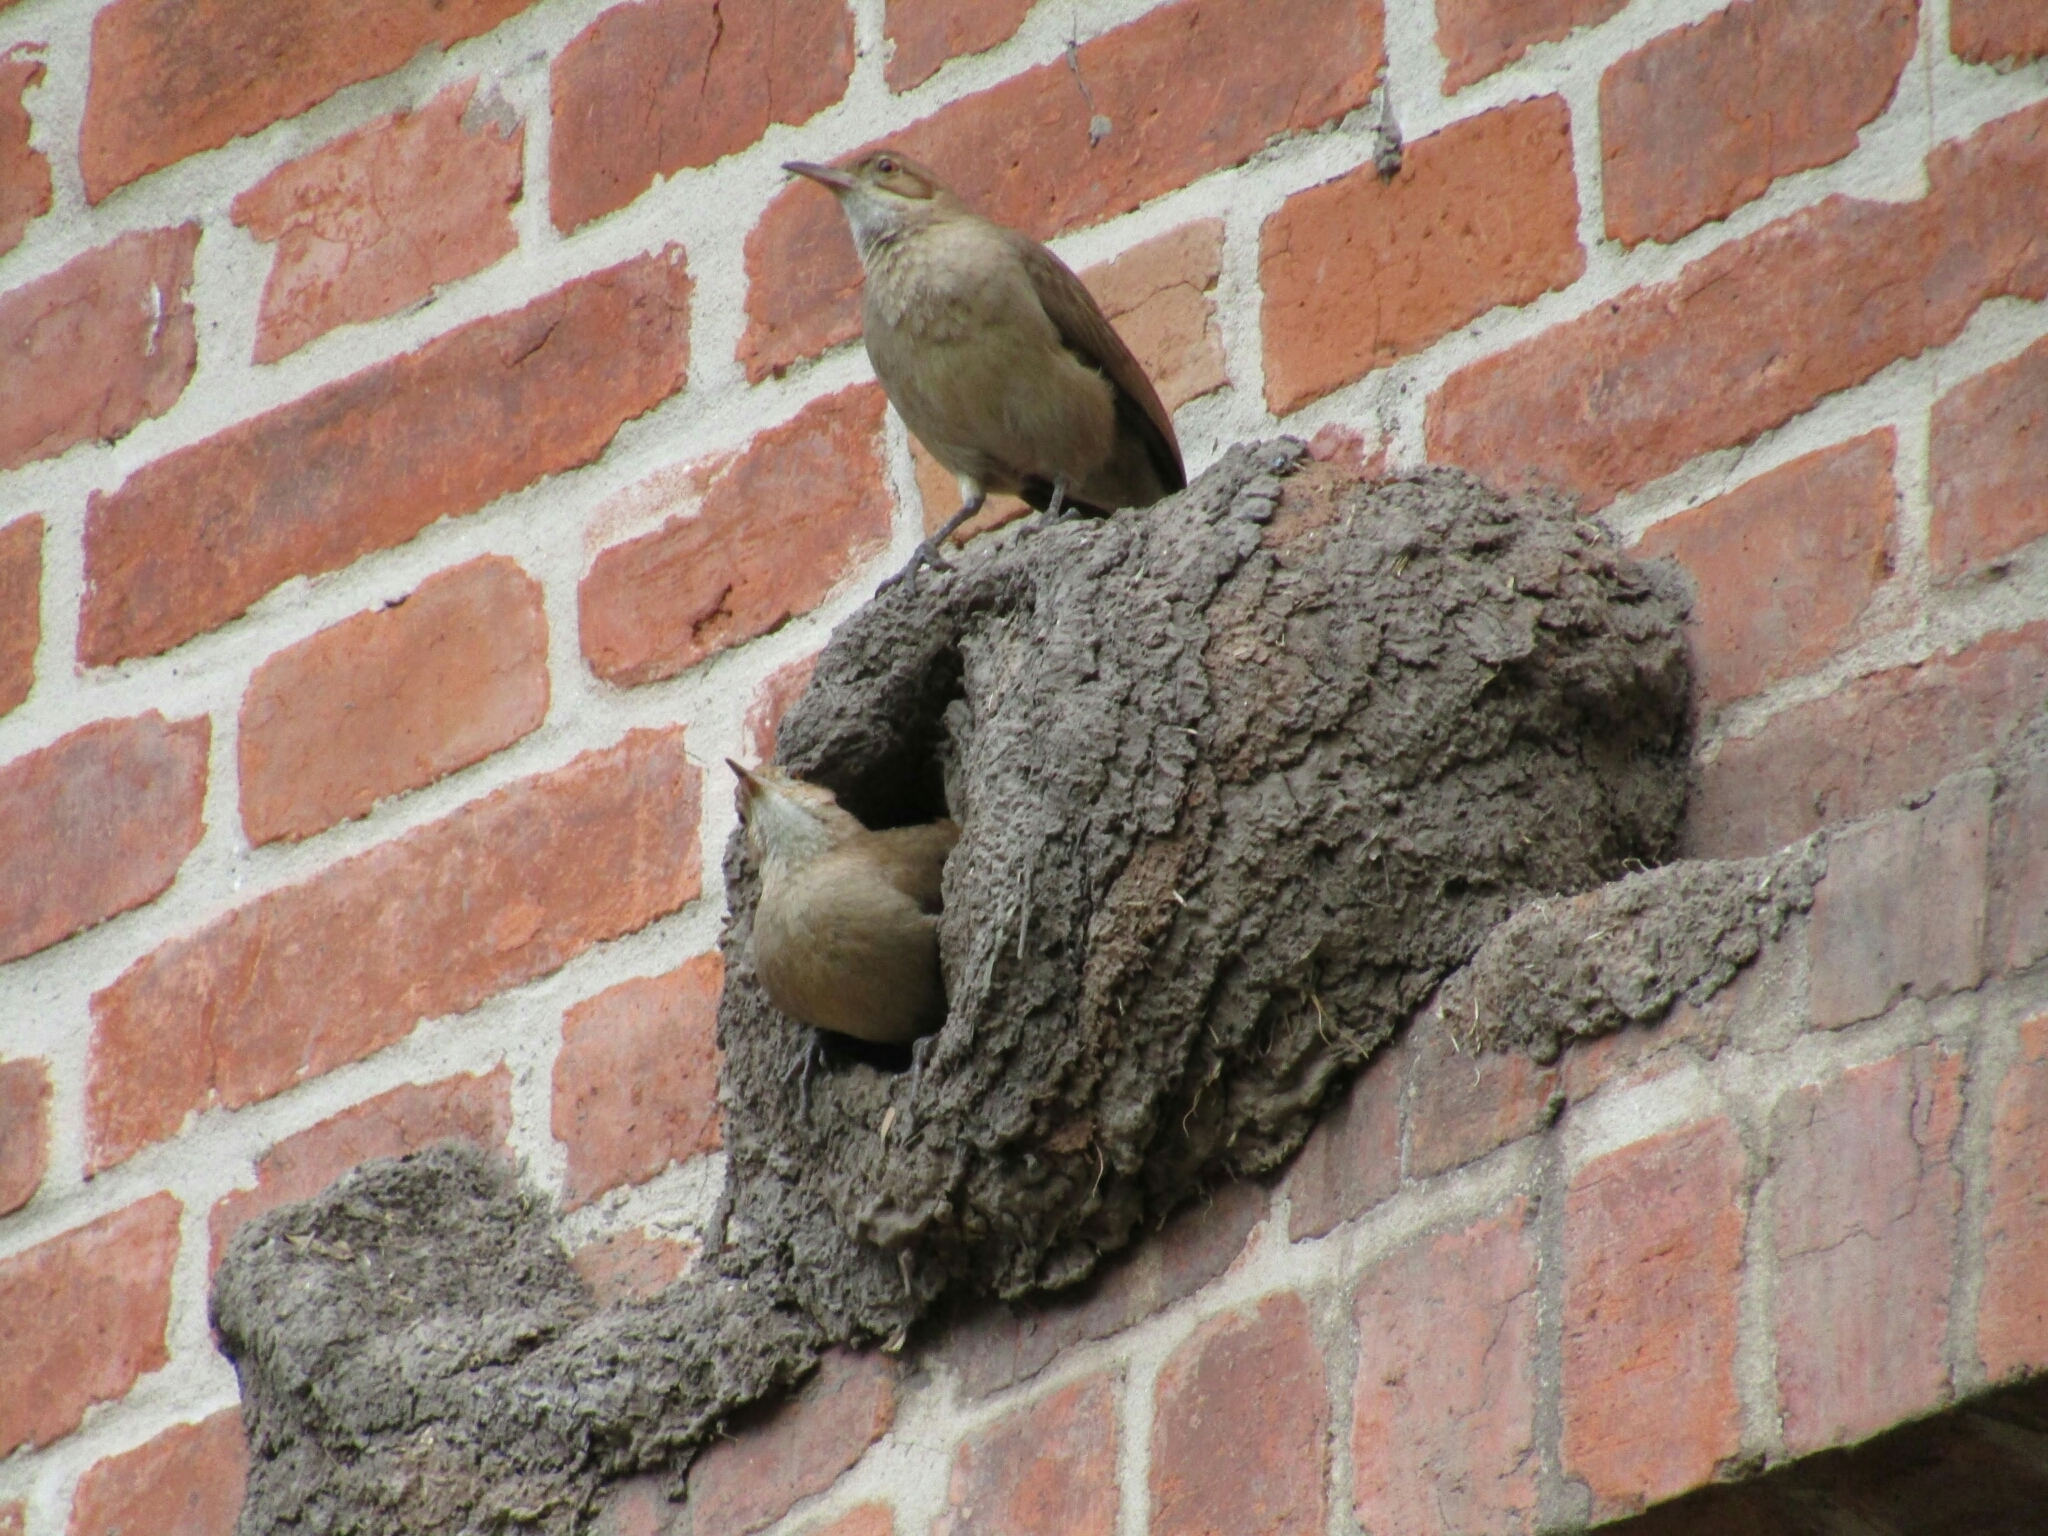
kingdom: Animalia
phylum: Chordata
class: Aves
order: Passeriformes
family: Furnariidae
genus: Furnarius
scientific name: Furnarius rufus
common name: Rufous hornero
